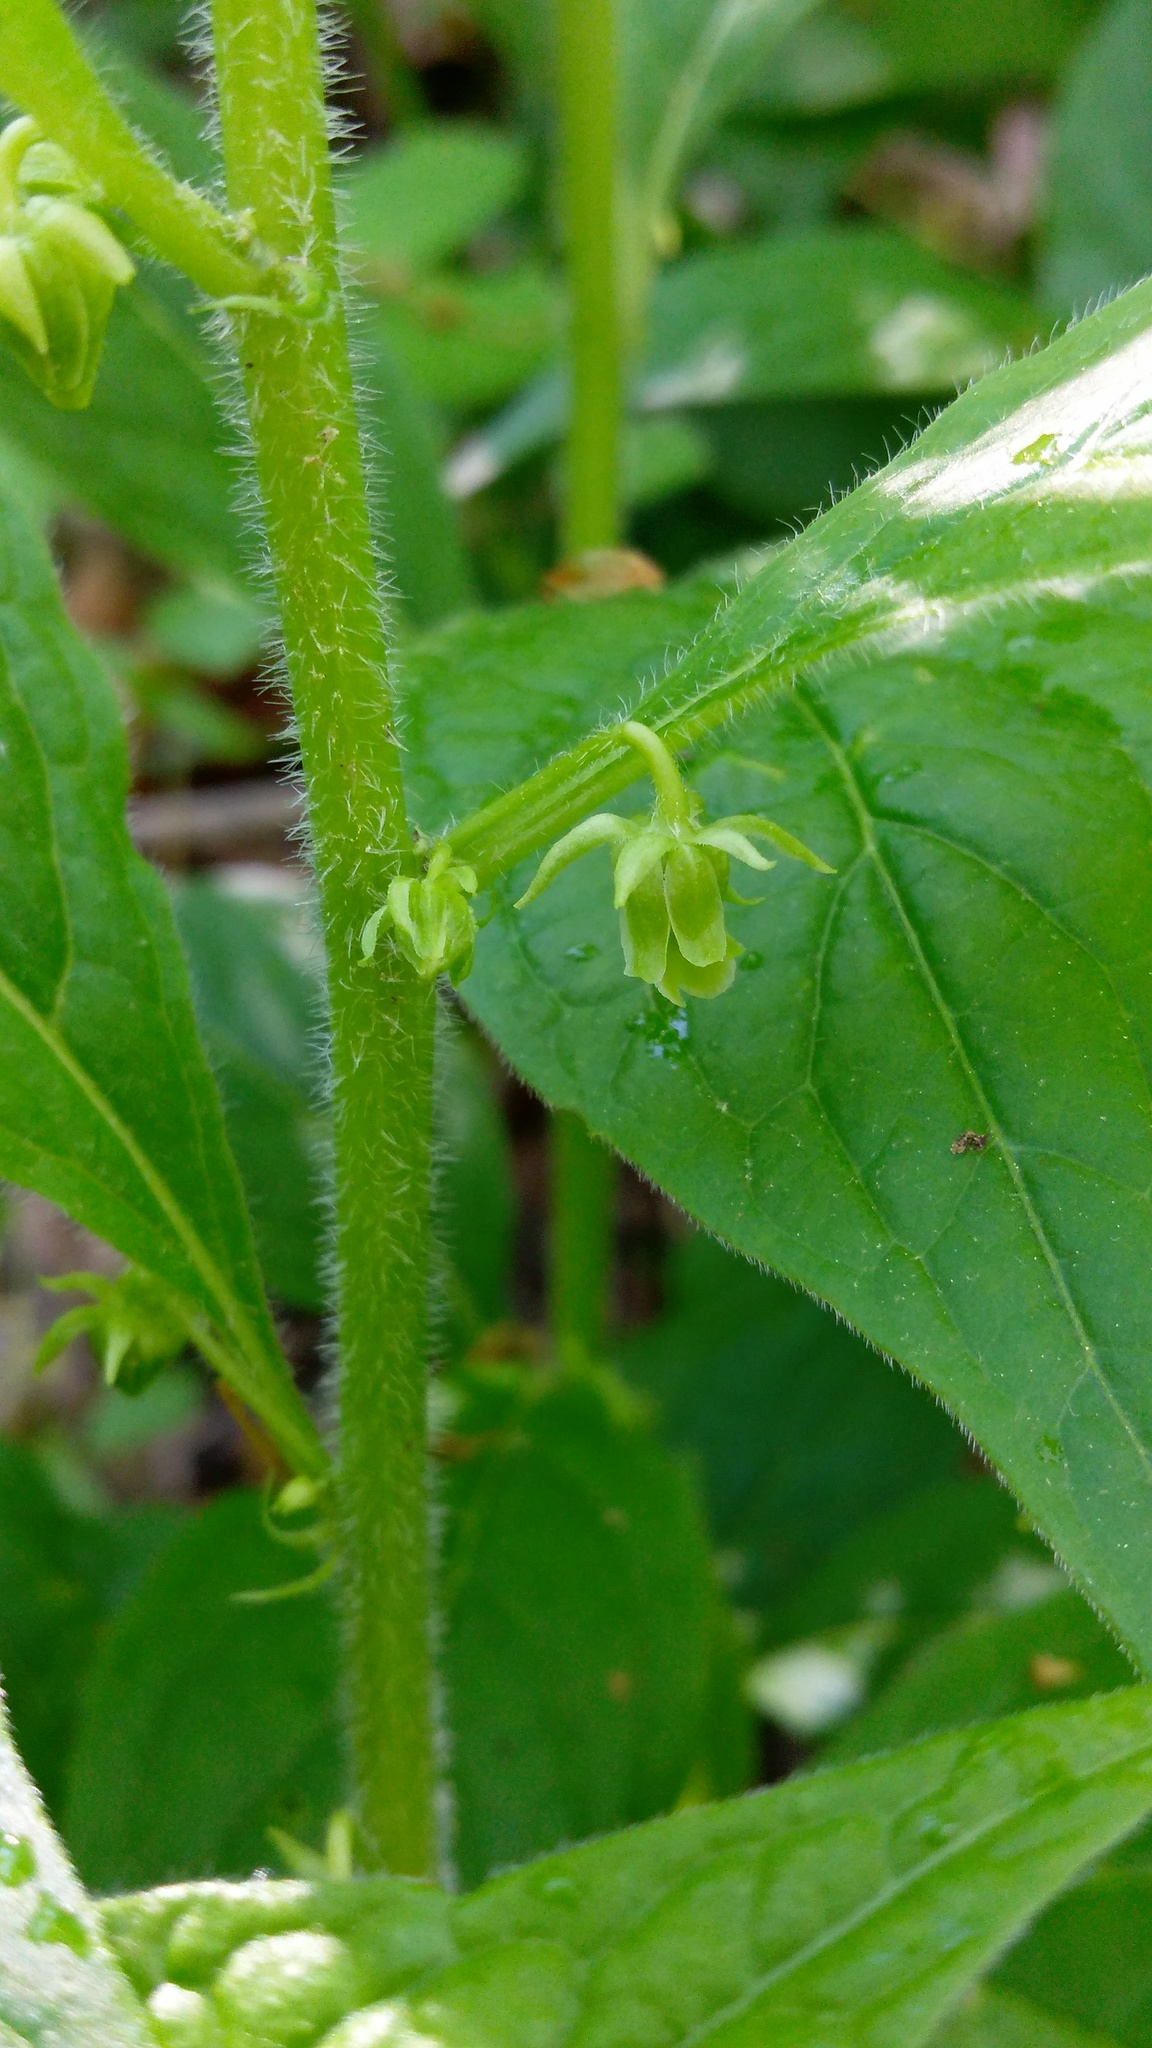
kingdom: Plantae
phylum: Tracheophyta
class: Magnoliopsida
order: Malpighiales
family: Violaceae
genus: Cubelium
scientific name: Cubelium concolor
